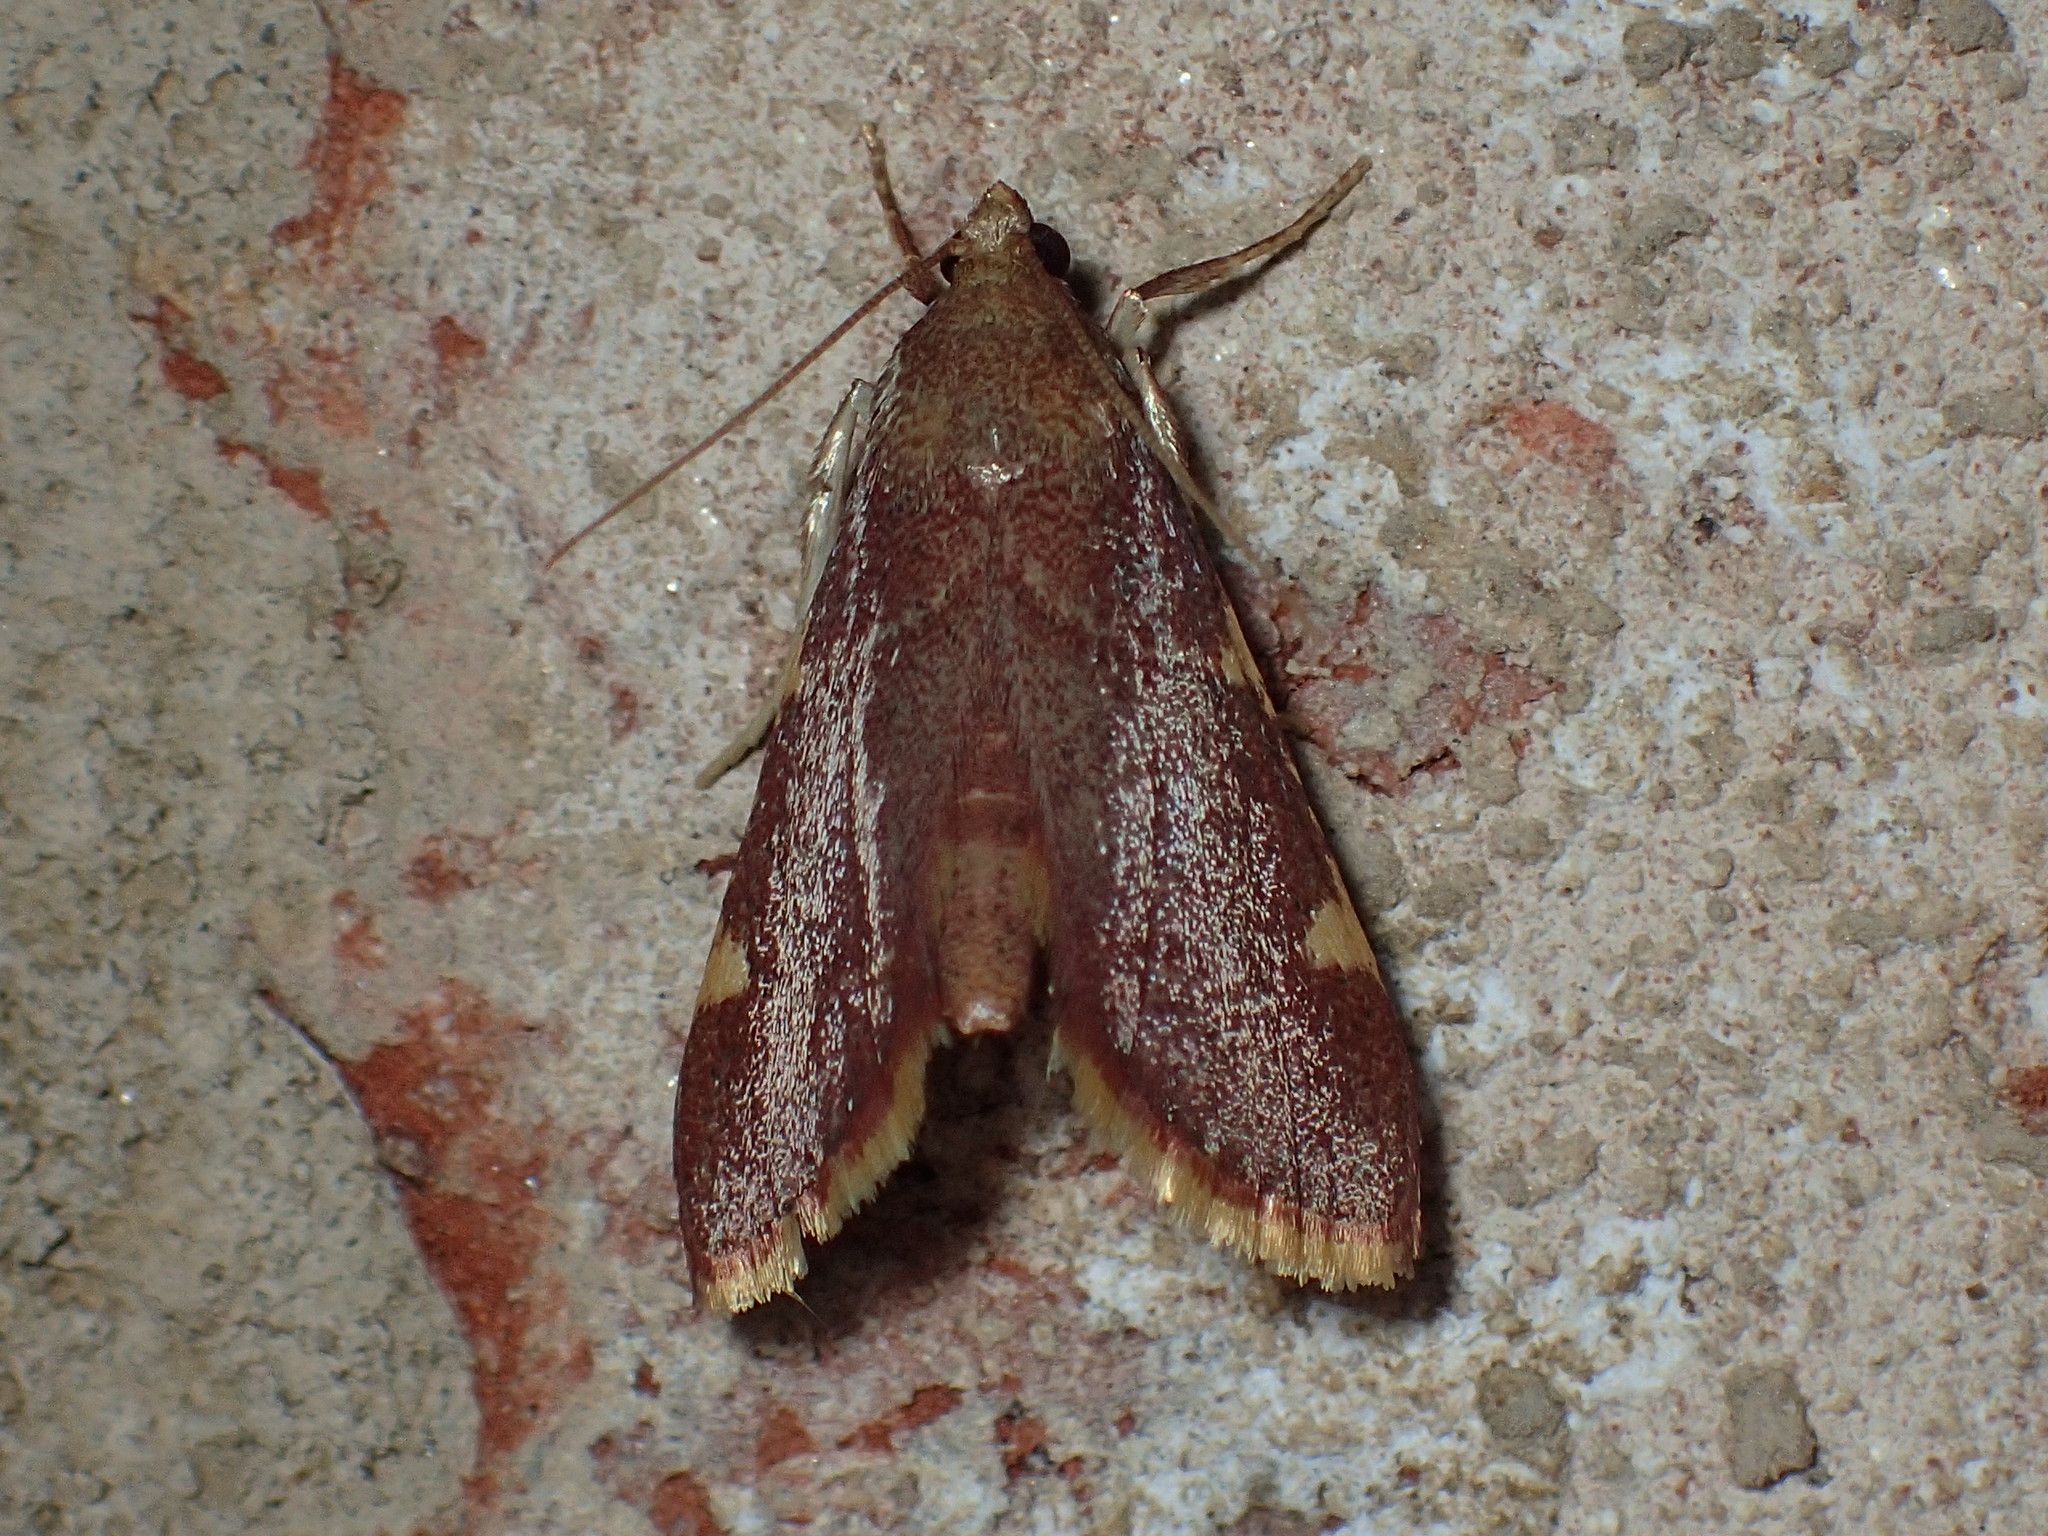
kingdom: Animalia
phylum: Arthropoda
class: Insecta
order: Lepidoptera
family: Pyralidae
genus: Hypsopygia
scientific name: Hypsopygia olinalis
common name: Yellow-fringed dolichomia moth
